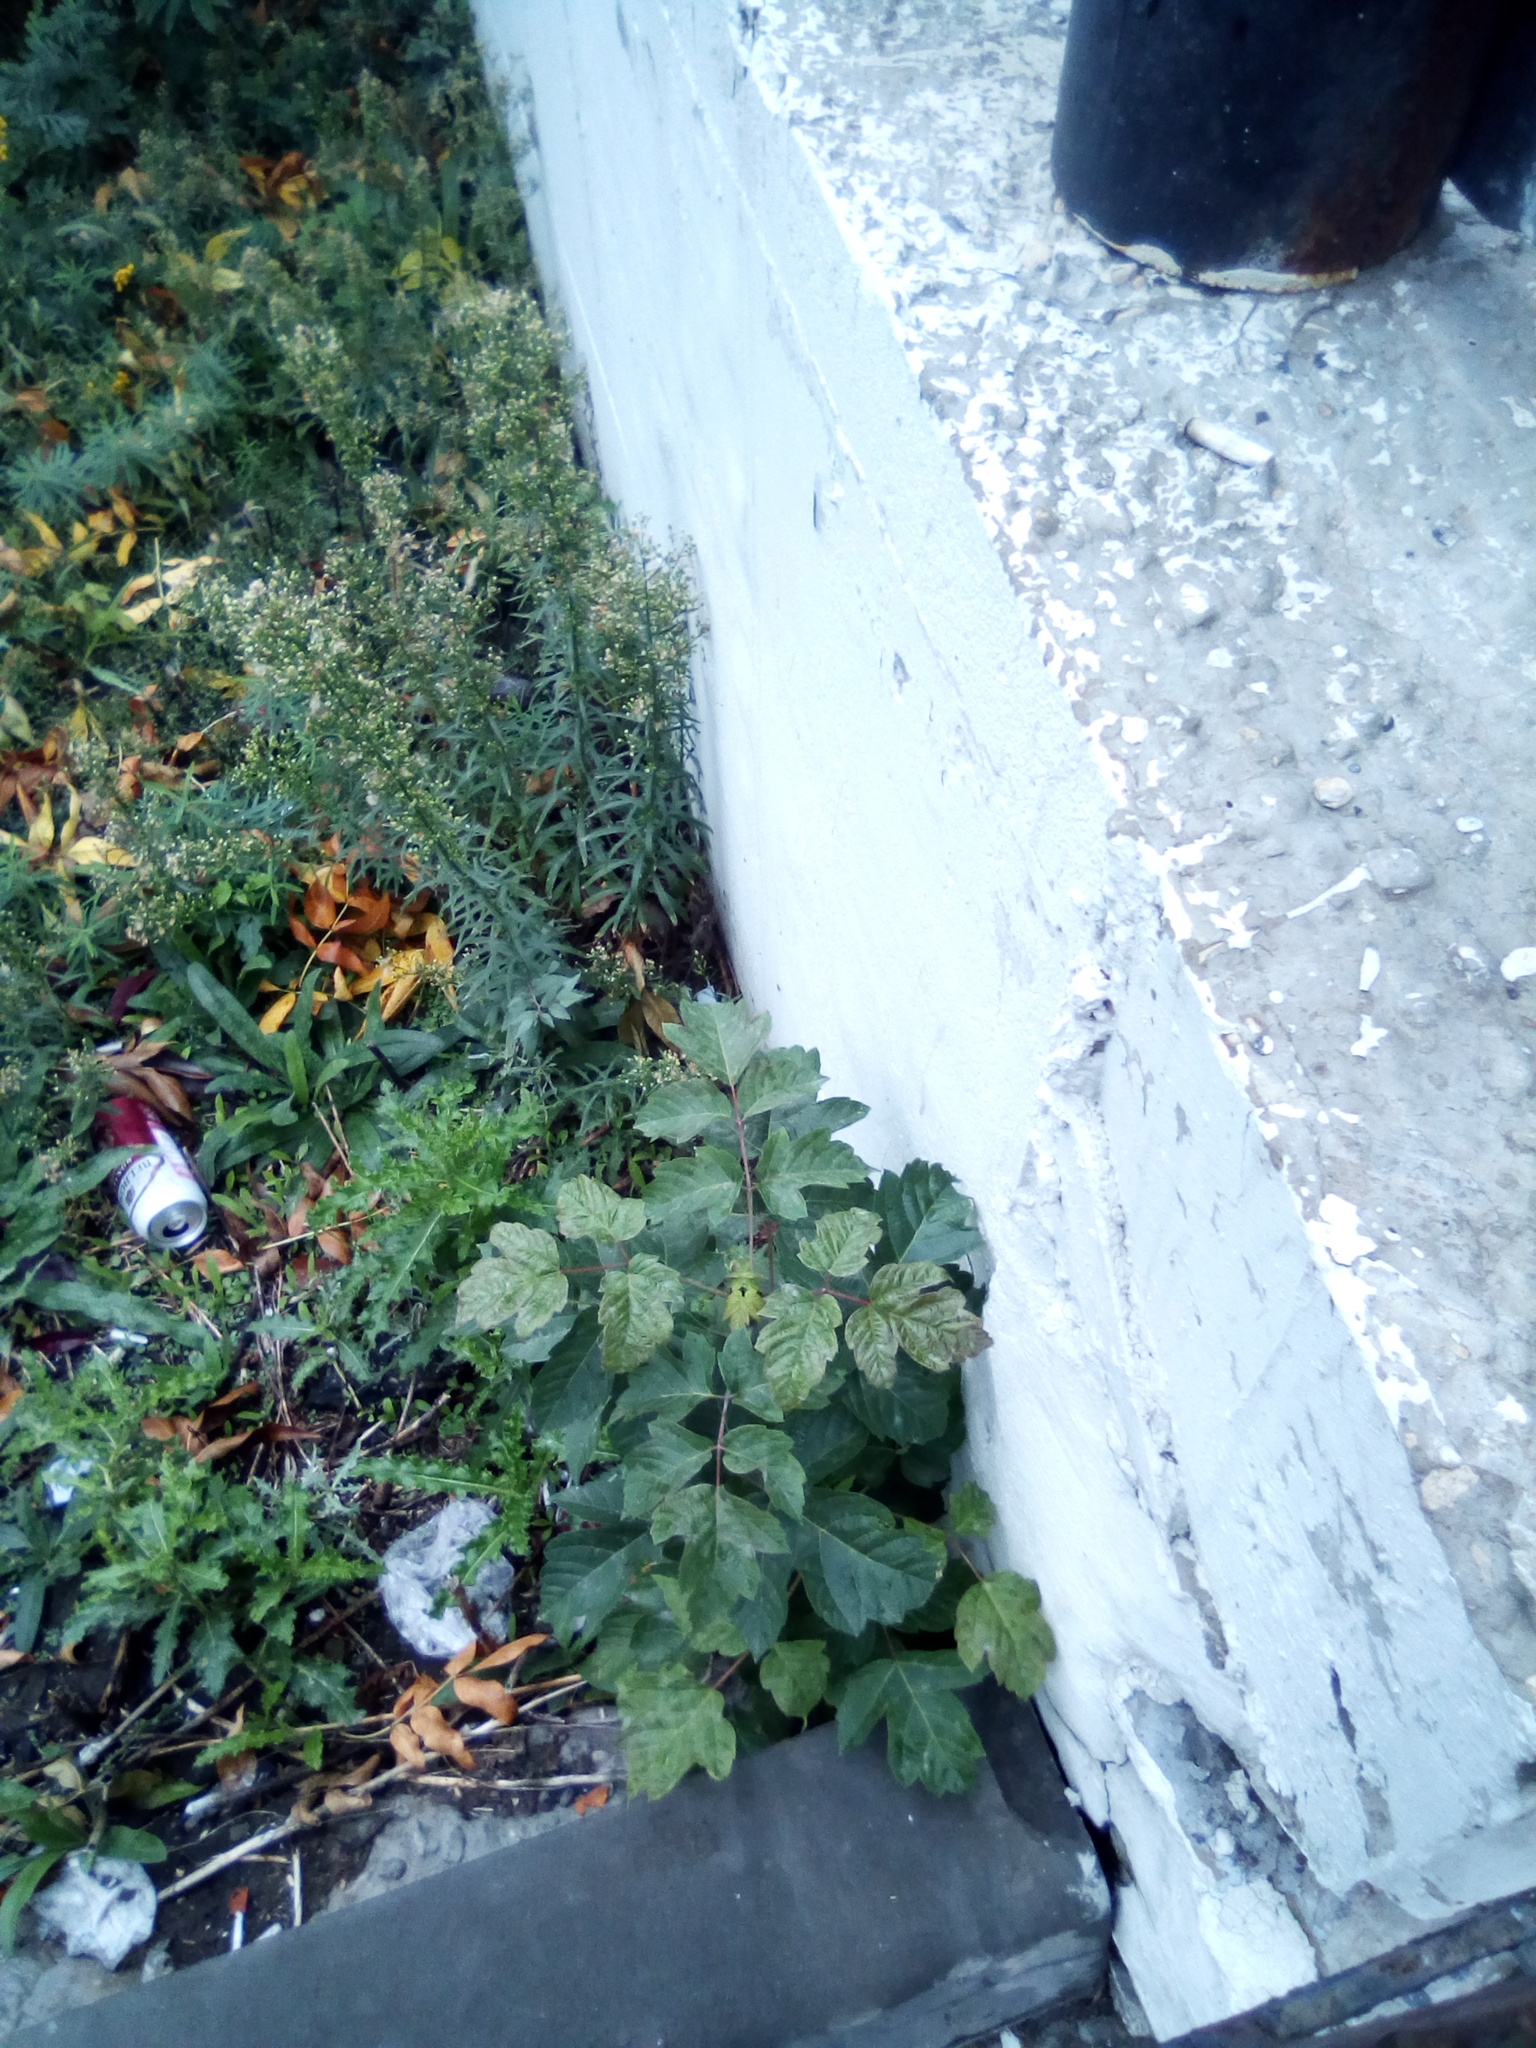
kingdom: Plantae
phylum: Tracheophyta
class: Magnoliopsida
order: Sapindales
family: Sapindaceae
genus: Acer
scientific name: Acer negundo
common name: Ashleaf maple
